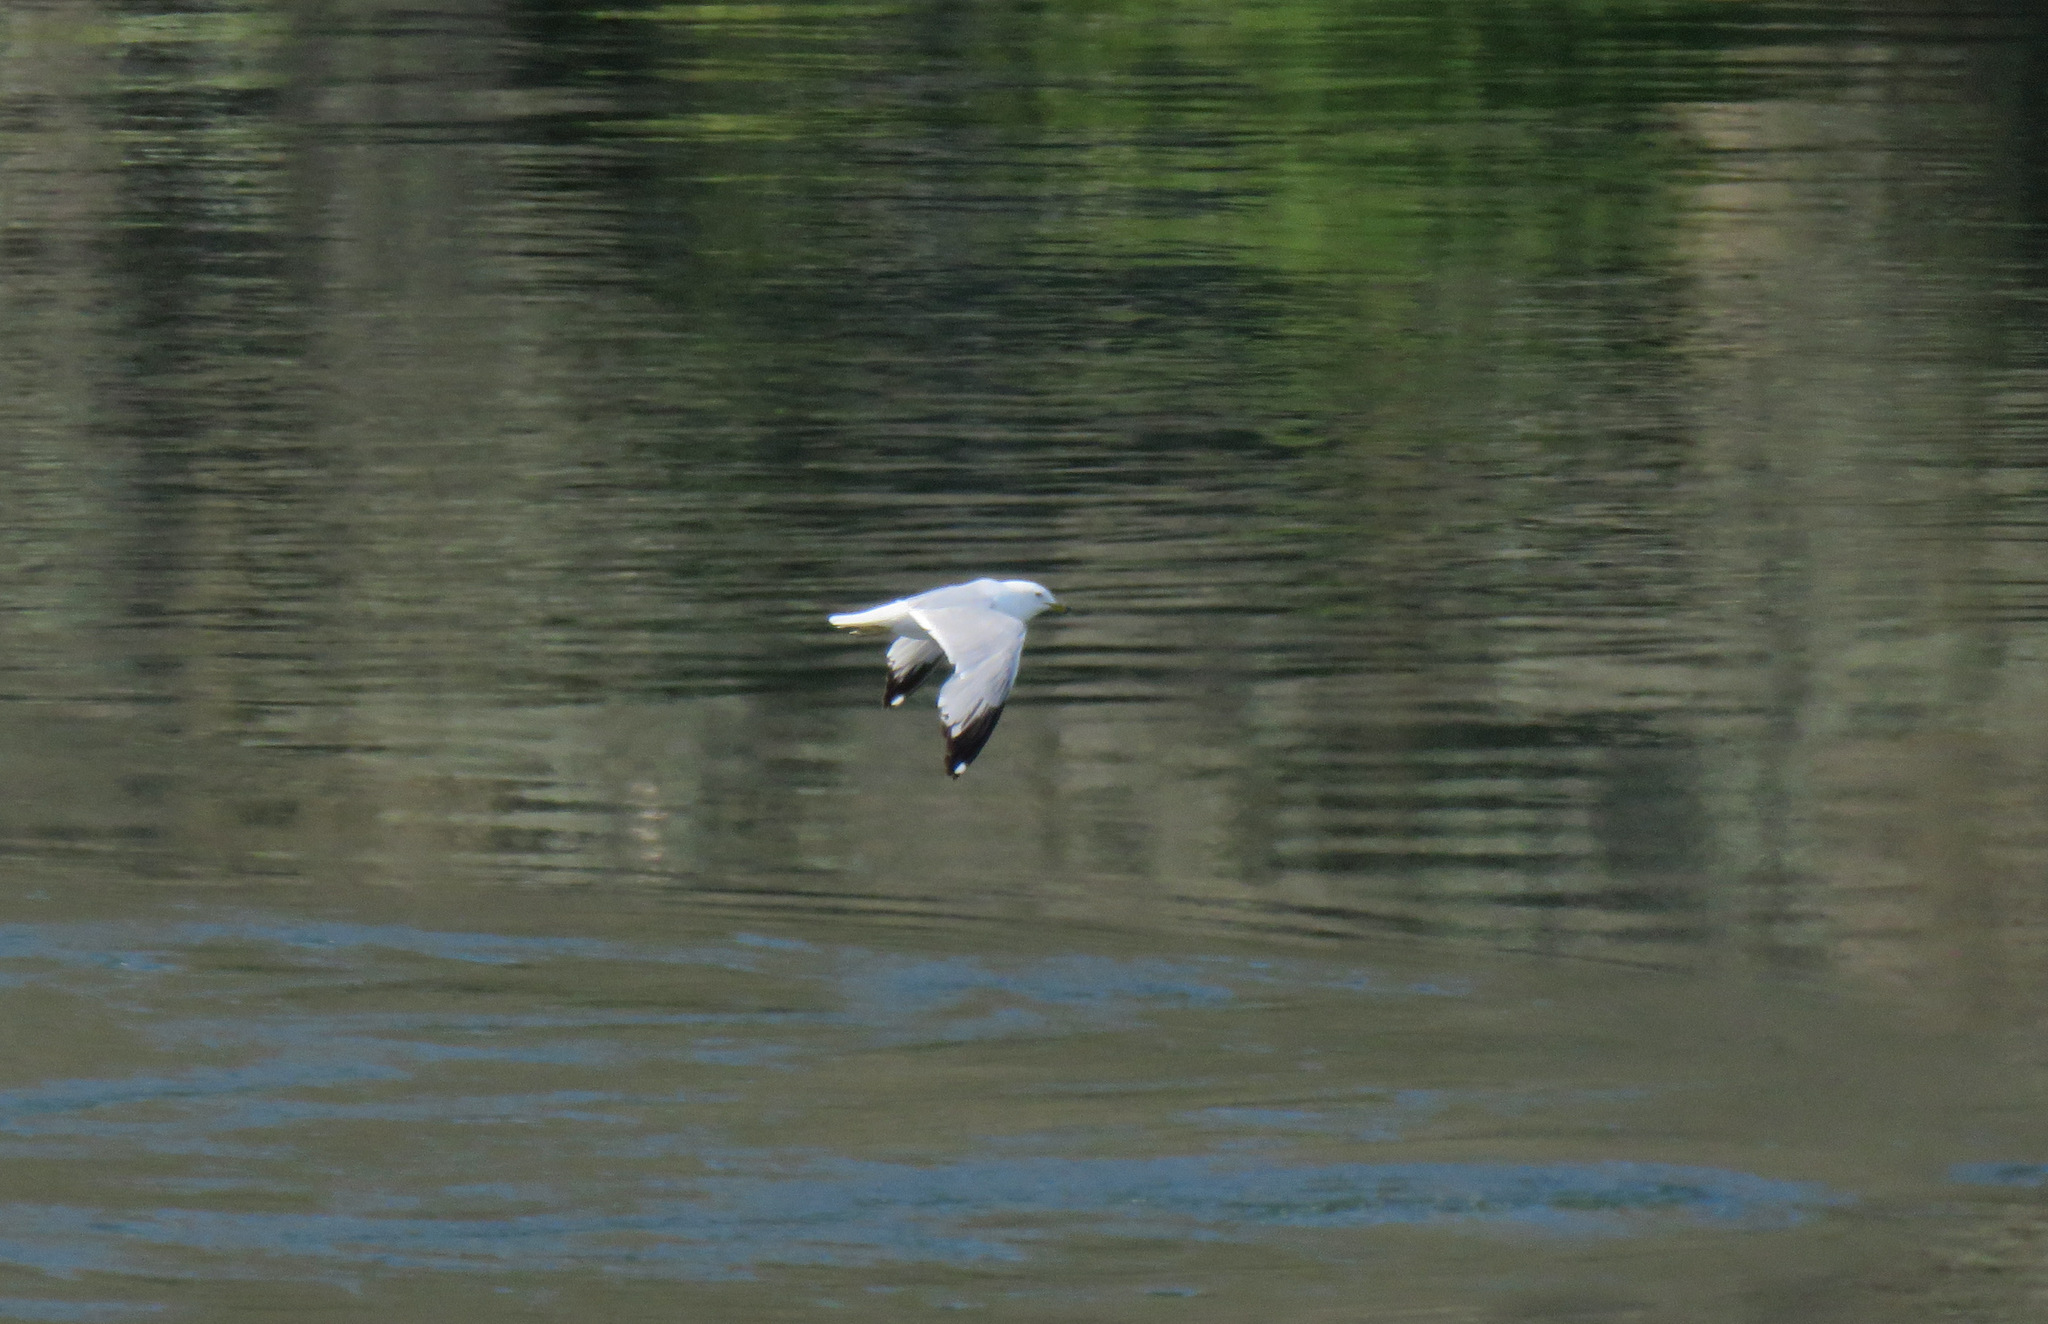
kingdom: Animalia
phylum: Chordata
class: Aves
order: Charadriiformes
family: Laridae
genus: Larus
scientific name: Larus delawarensis
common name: Ring-billed gull
